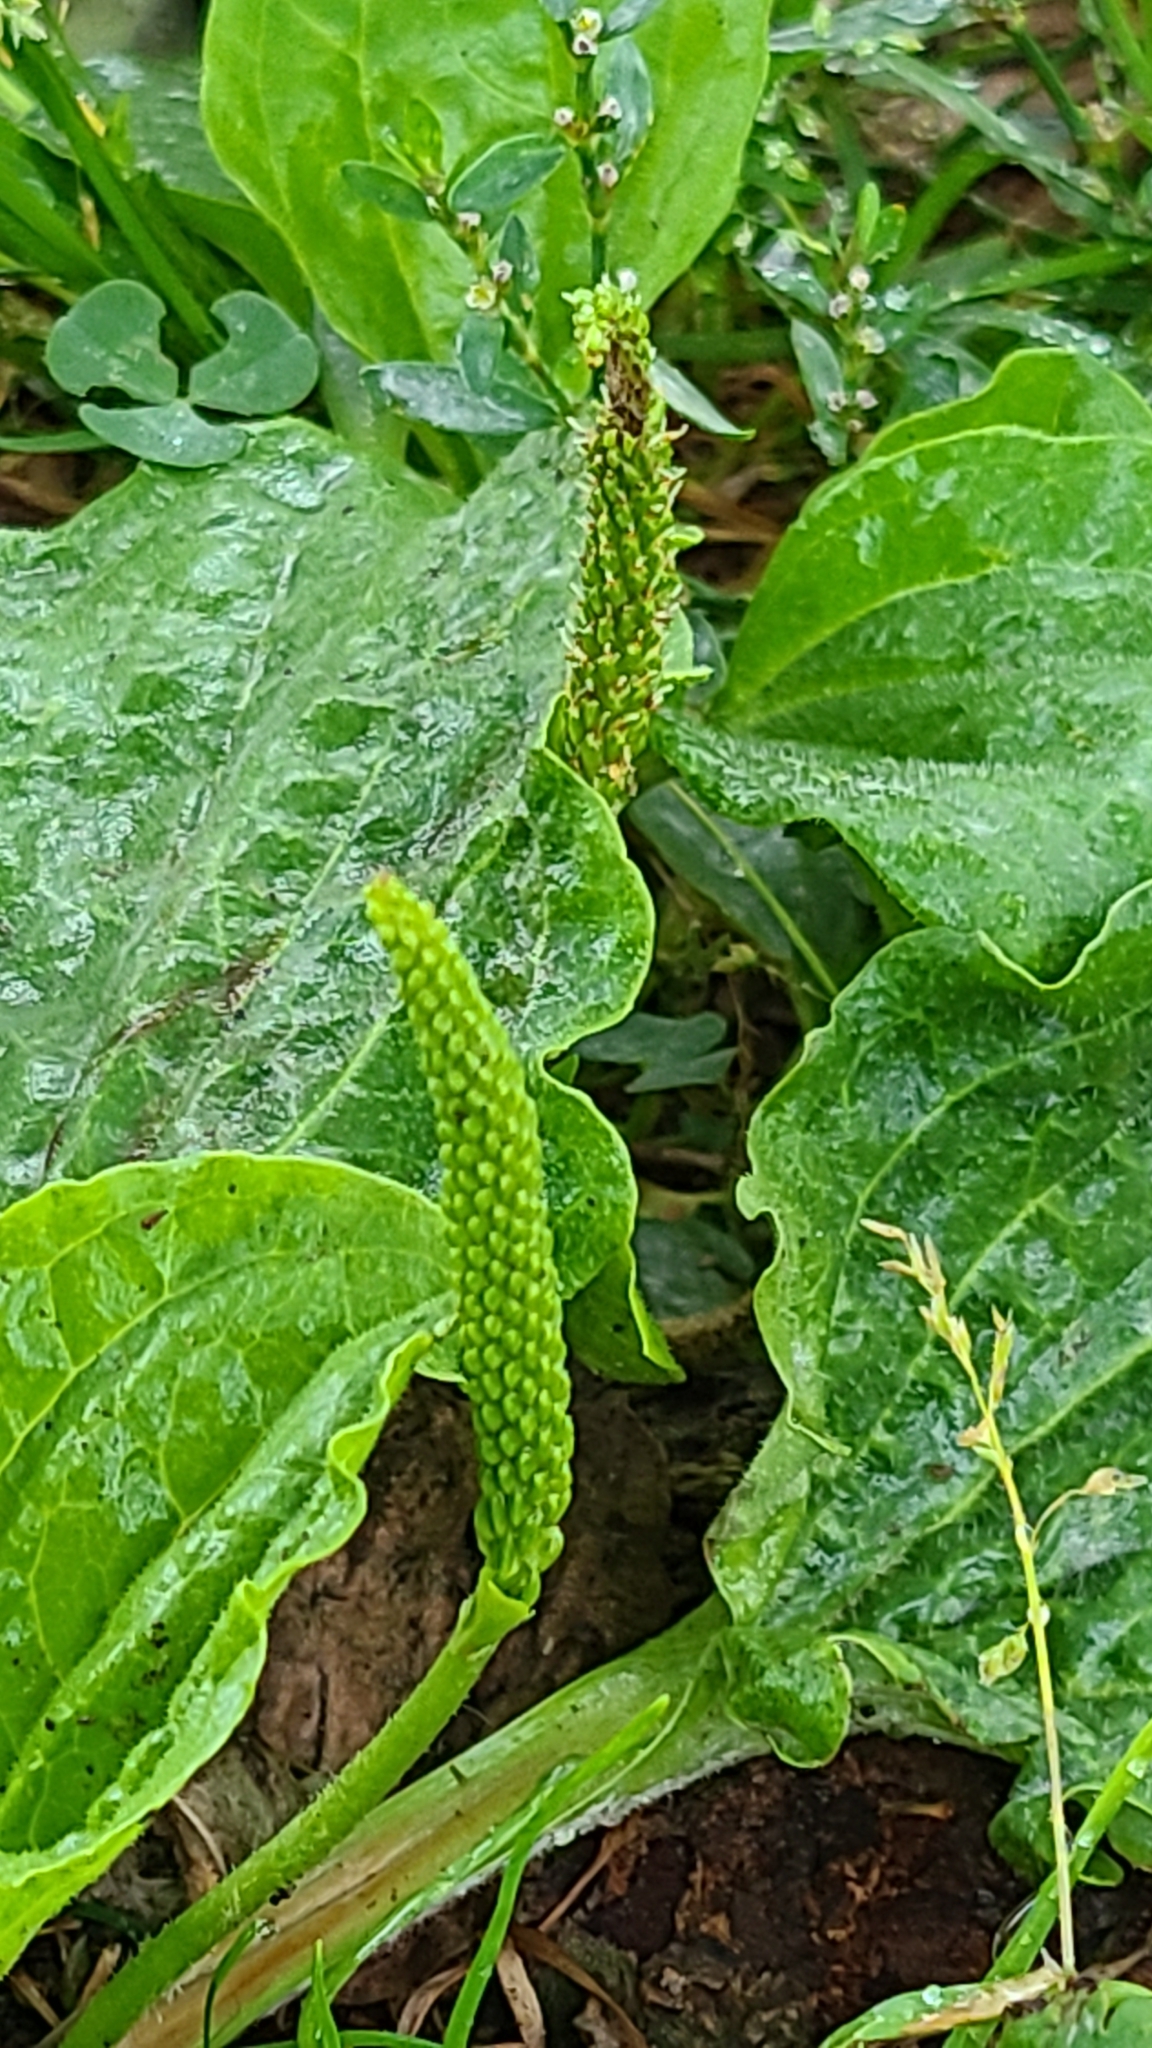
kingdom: Plantae
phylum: Tracheophyta
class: Magnoliopsida
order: Lamiales
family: Plantaginaceae
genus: Plantago
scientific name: Plantago major
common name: Common plantain
